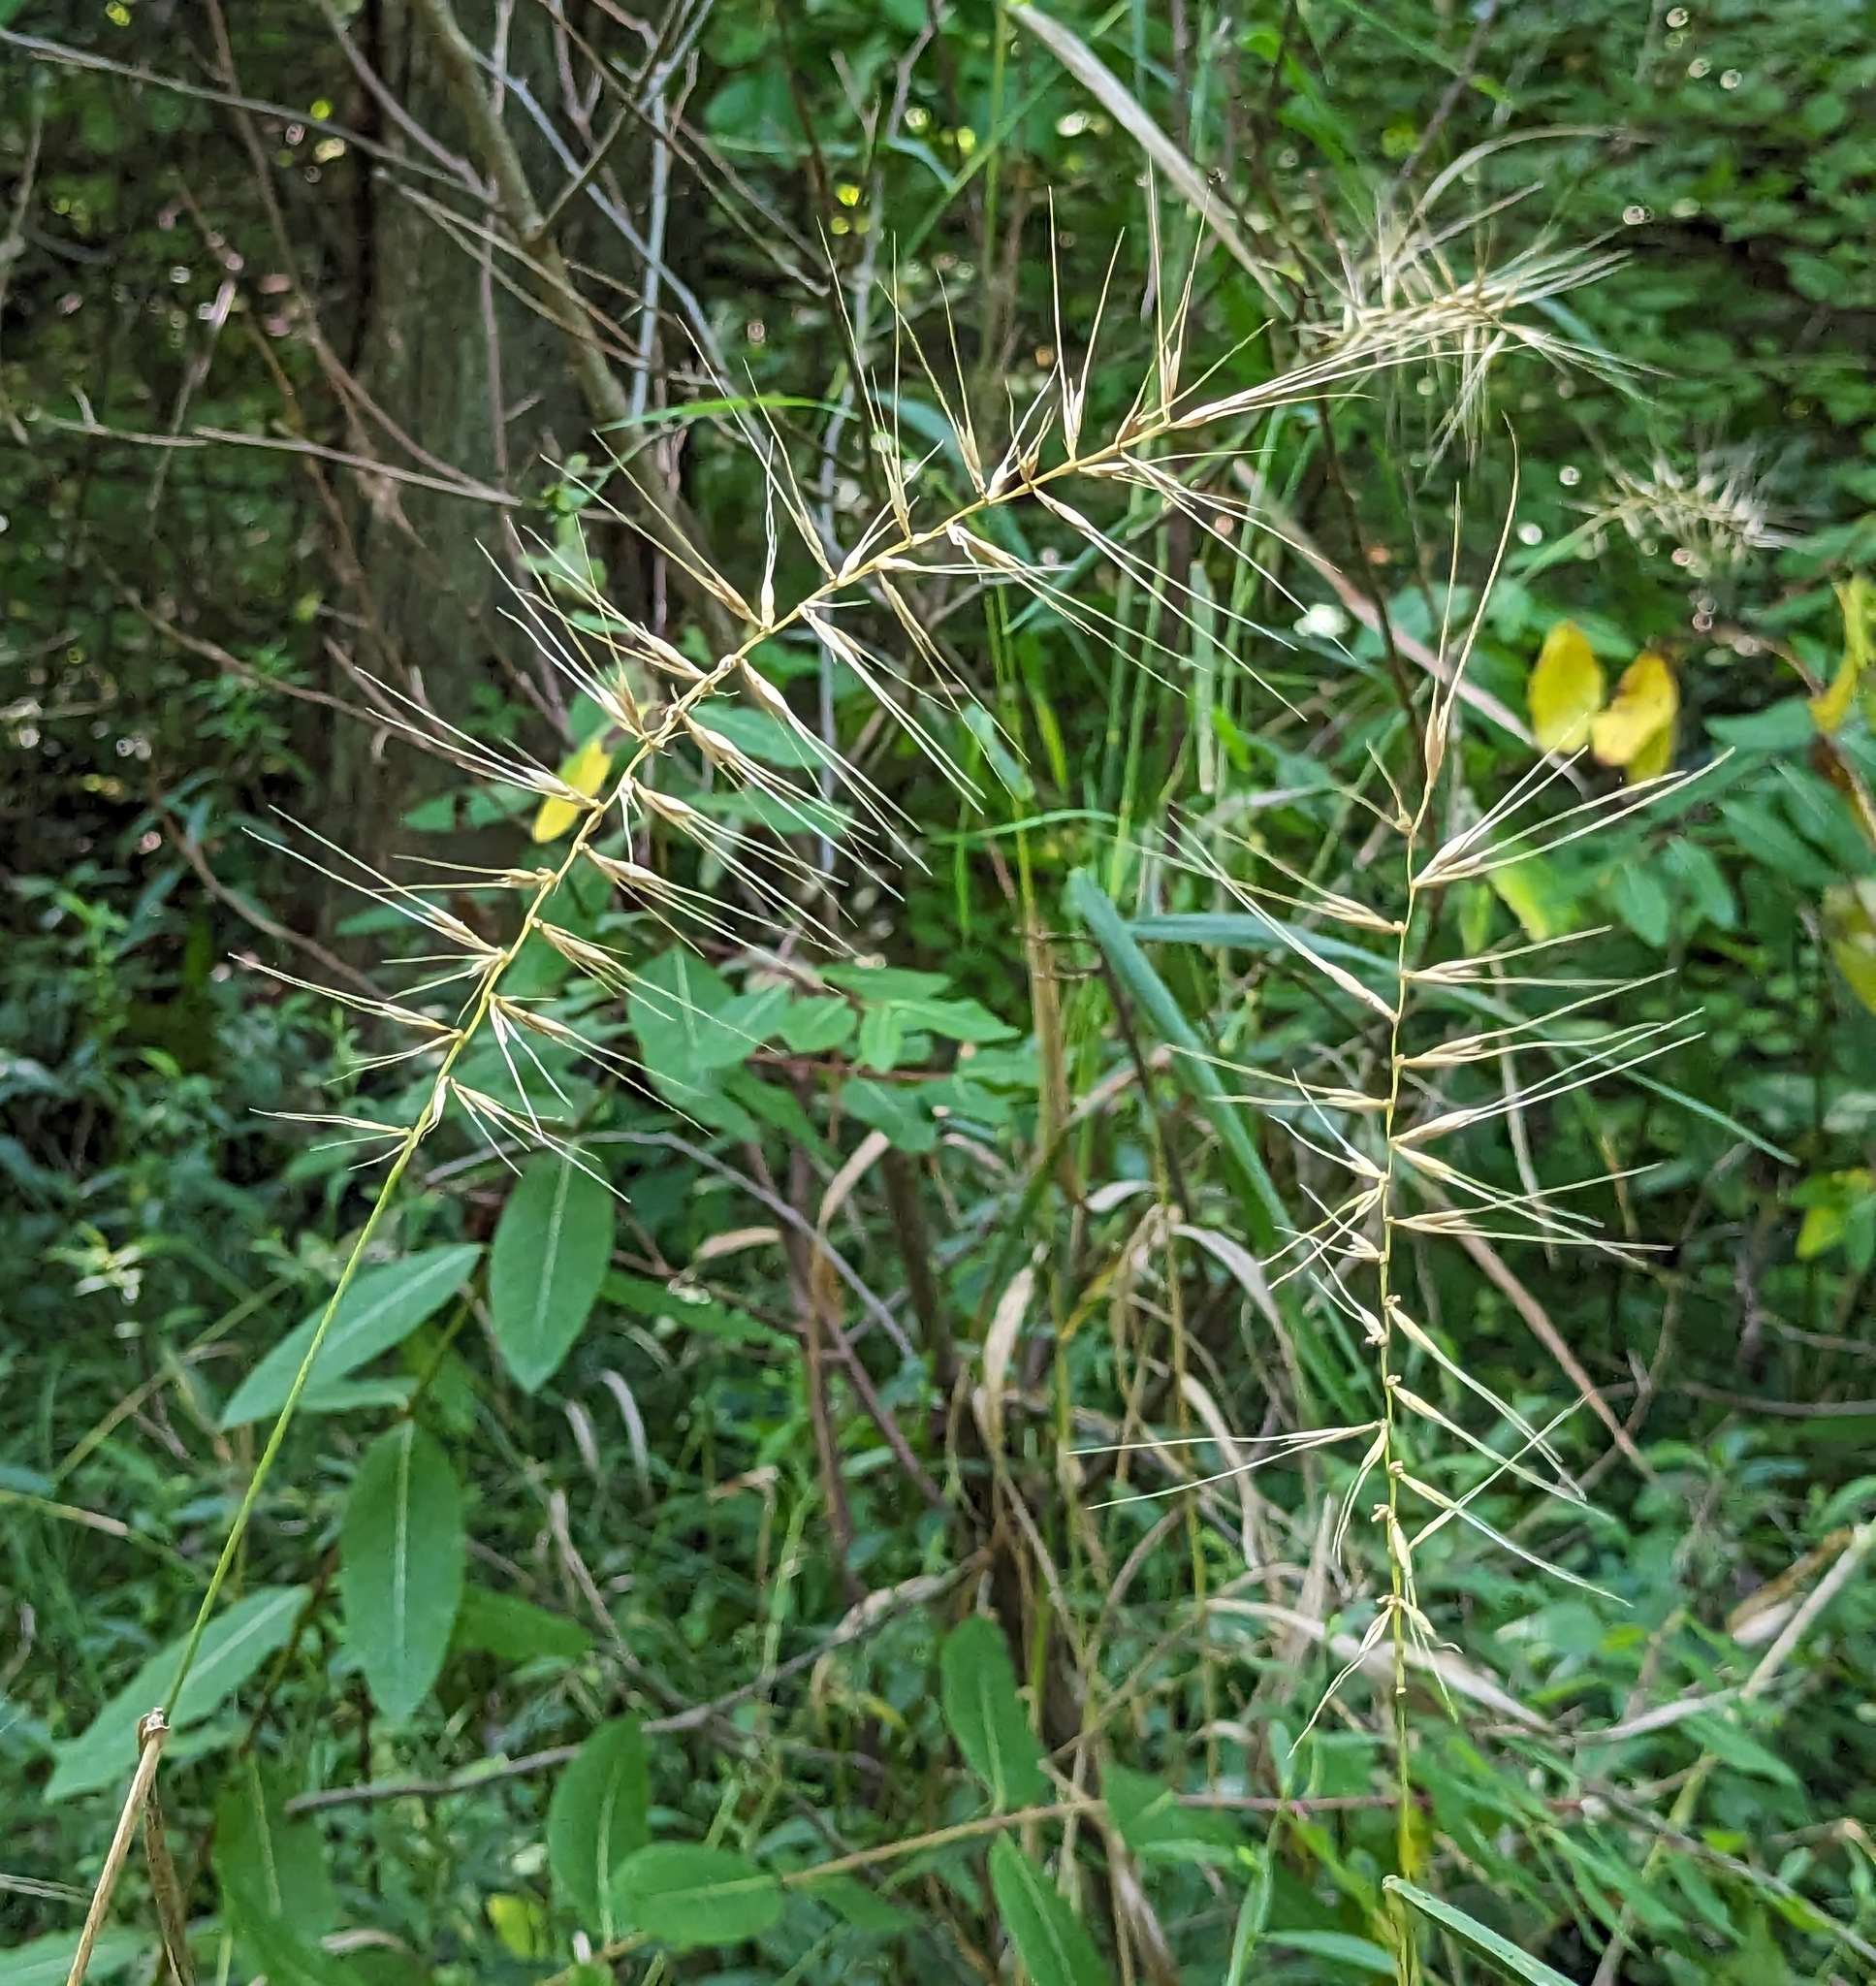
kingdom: Plantae
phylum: Tracheophyta
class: Liliopsida
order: Poales
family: Poaceae
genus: Elymus
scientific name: Elymus hystrix
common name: Bottlebrush grass
